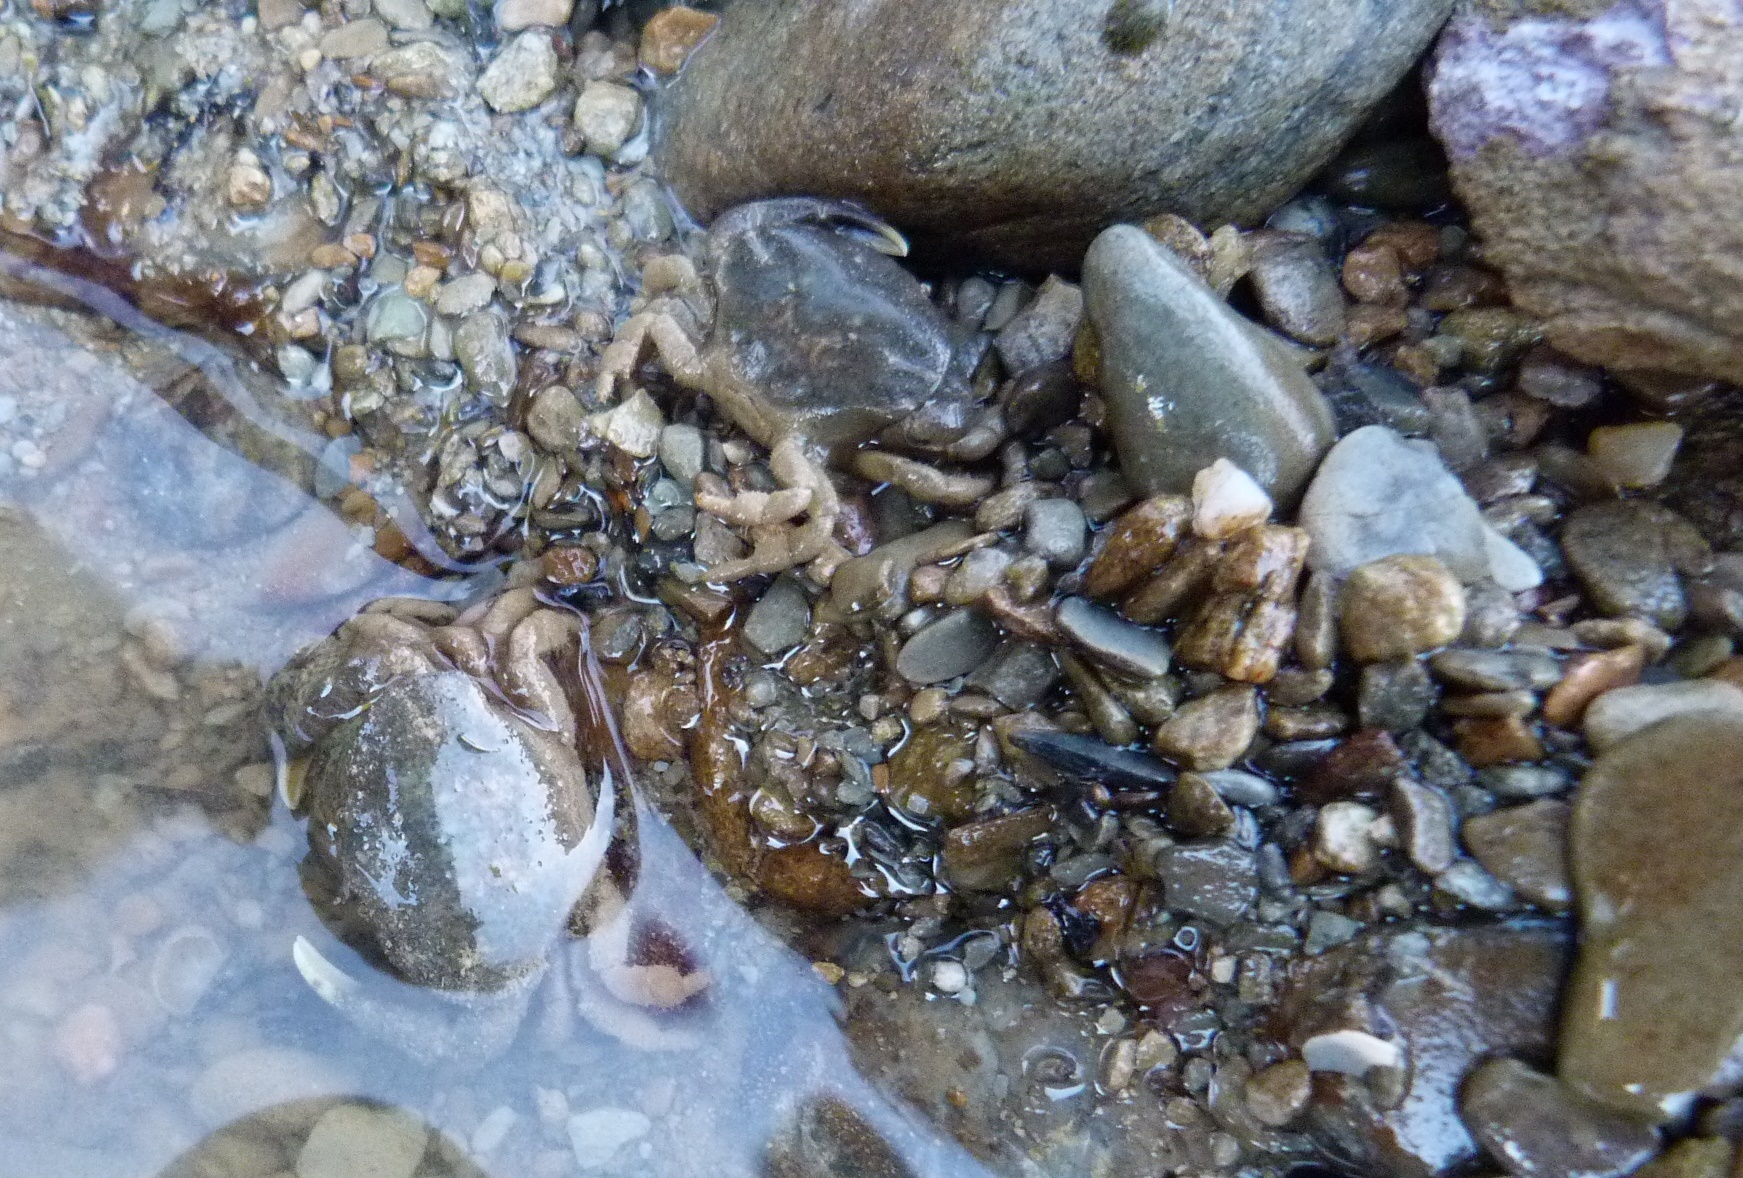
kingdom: Animalia
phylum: Arthropoda
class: Malacostraca
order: Decapoda
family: Heteroziidae
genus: Heterozius
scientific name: Heterozius rotundifrons
